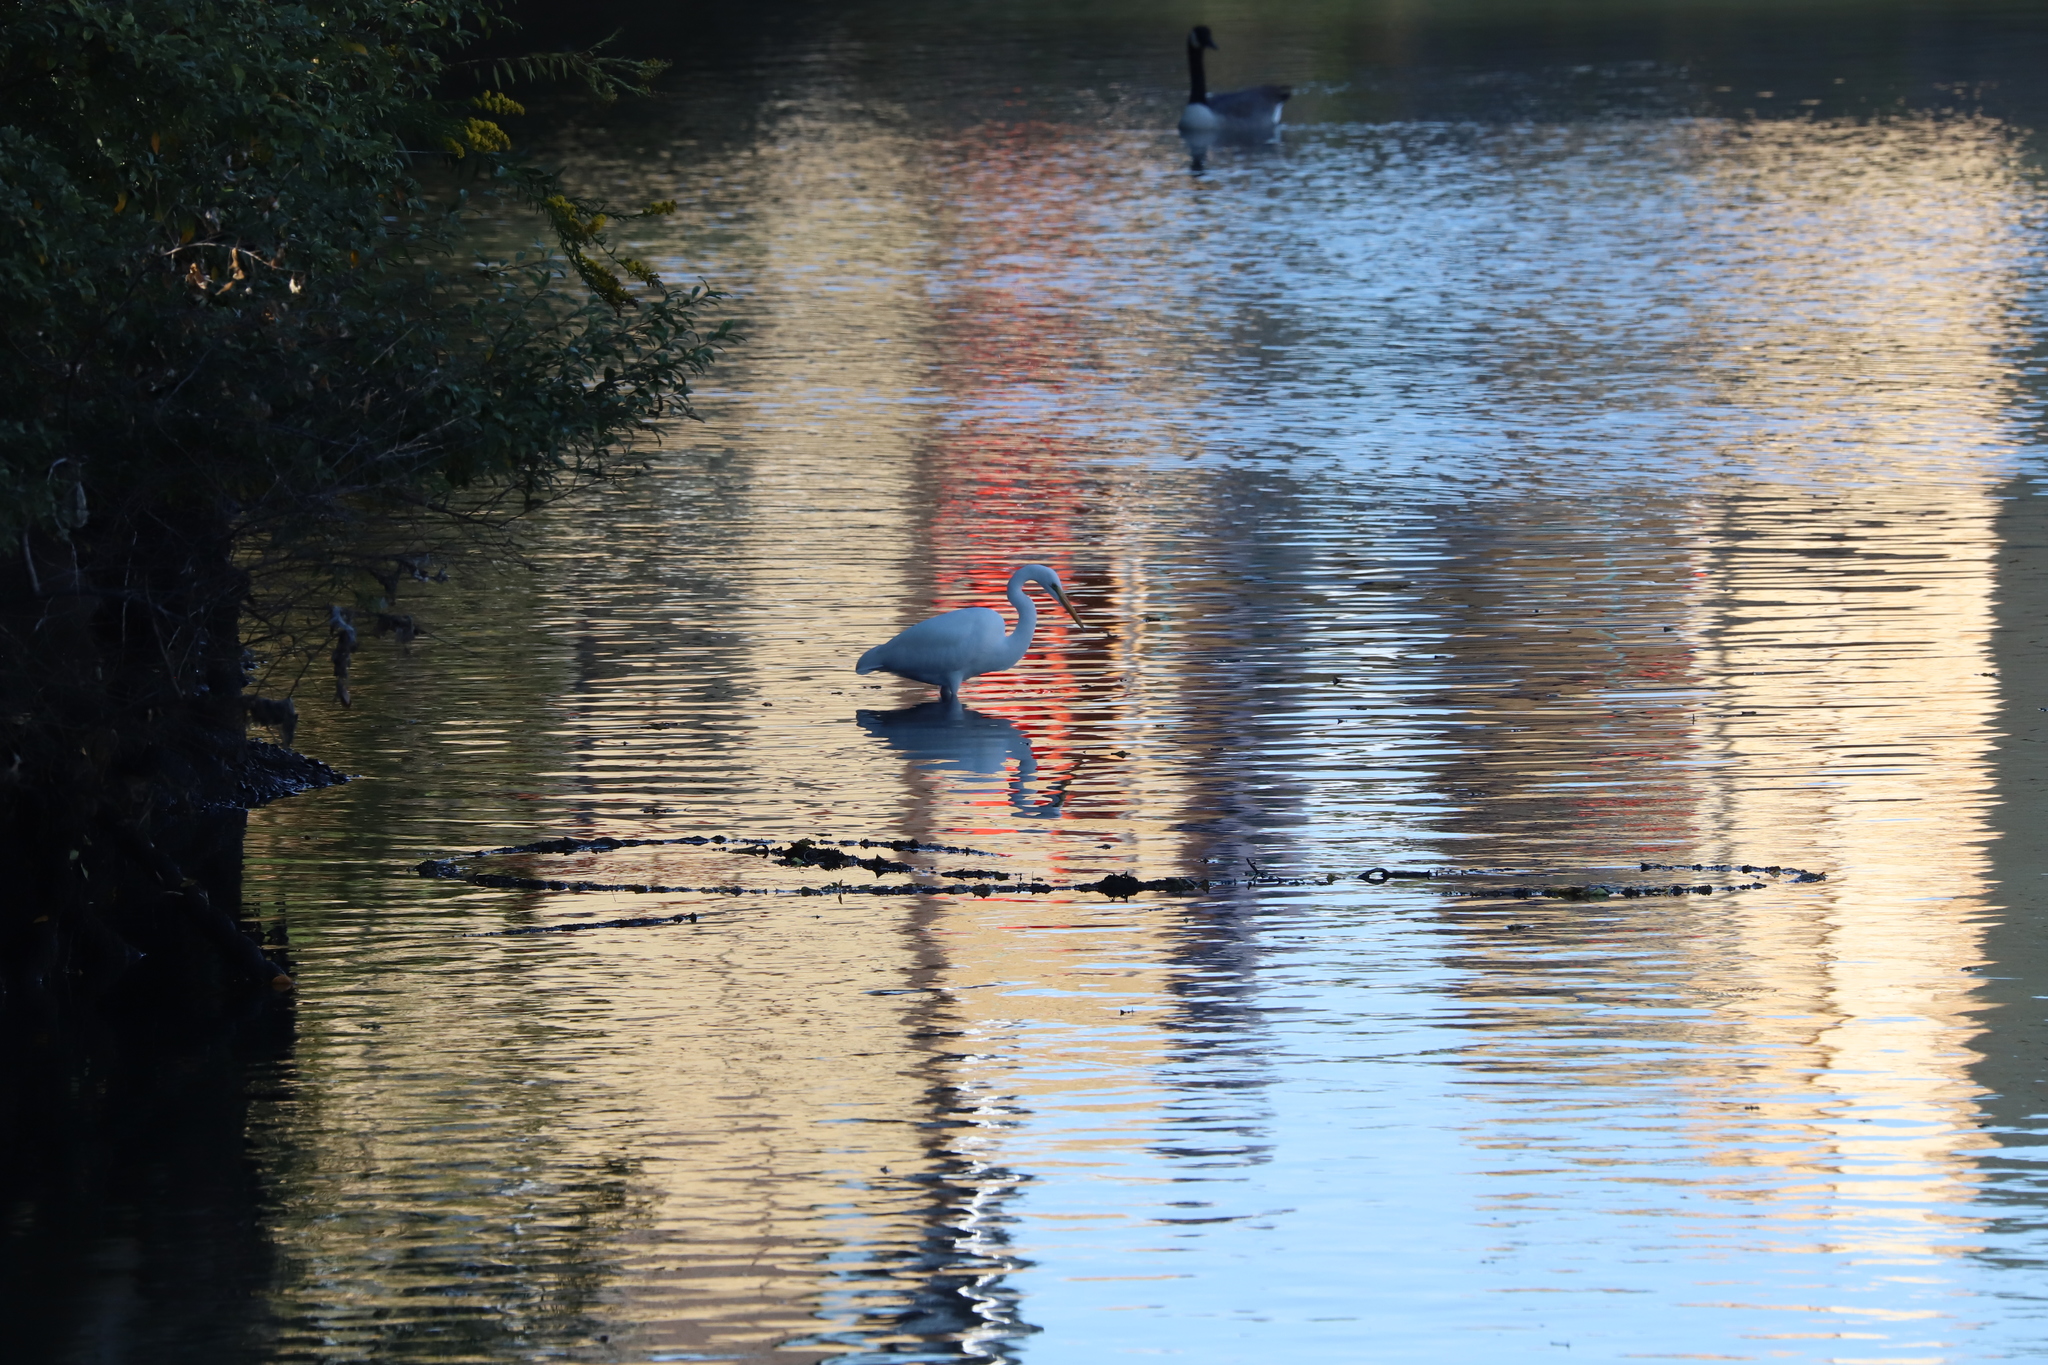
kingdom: Animalia
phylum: Chordata
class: Aves
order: Pelecaniformes
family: Ardeidae
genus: Ardea
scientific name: Ardea alba
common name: Great egret
